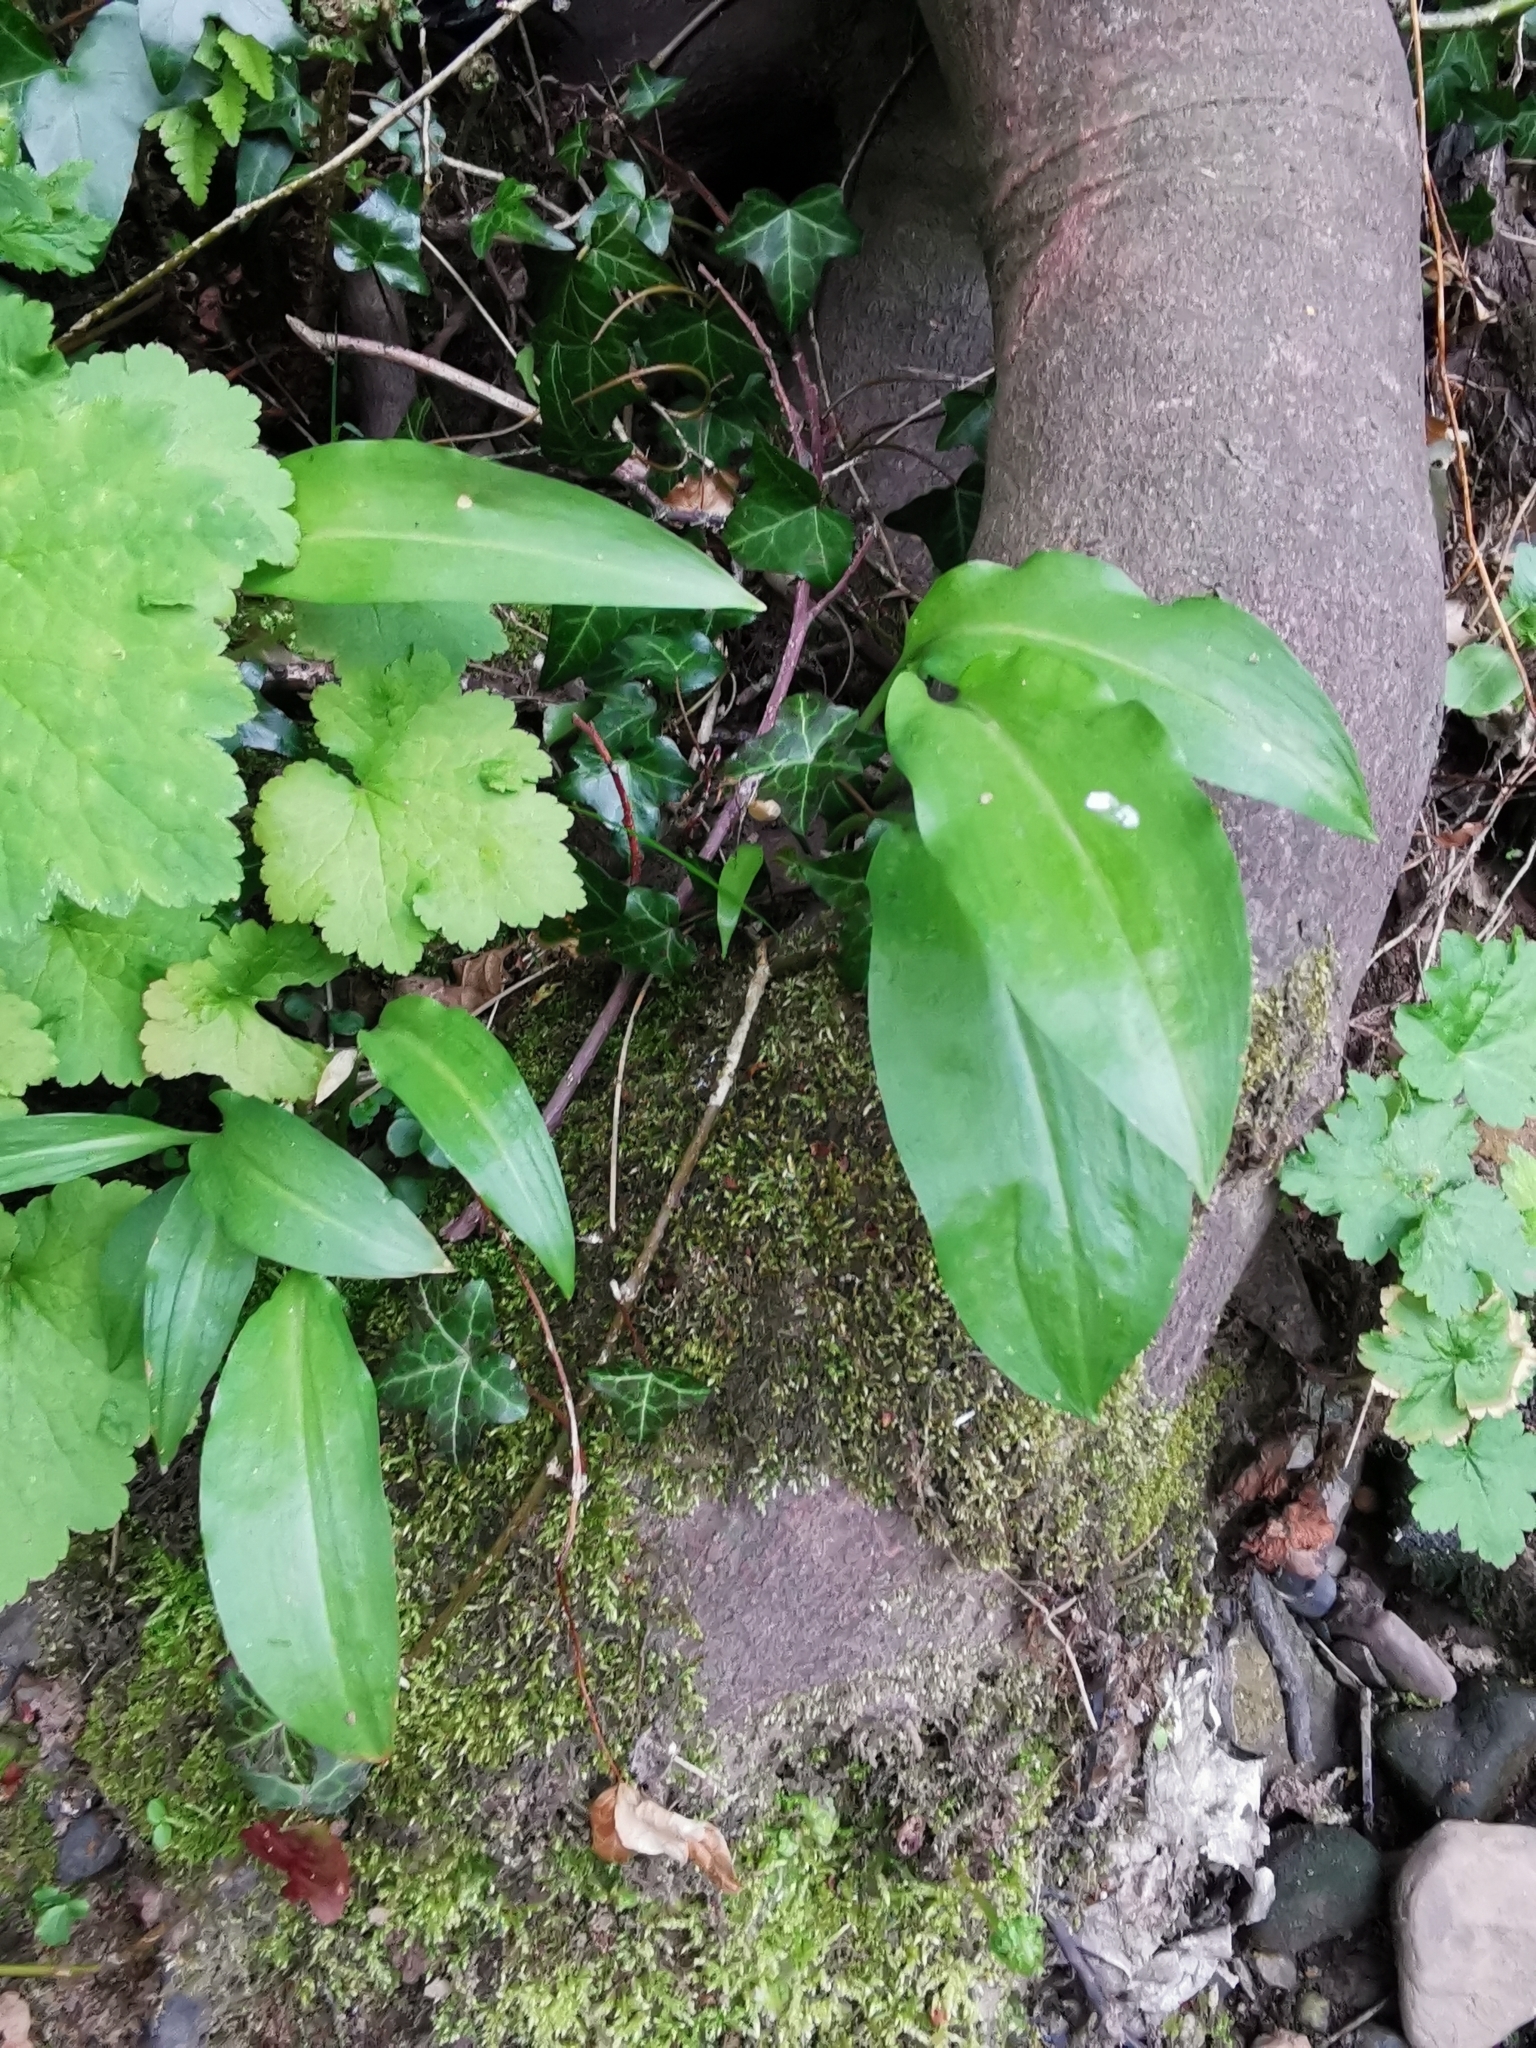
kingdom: Plantae
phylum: Tracheophyta
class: Liliopsida
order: Asparagales
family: Amaryllidaceae
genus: Allium
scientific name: Allium ursinum
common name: Ramsons
